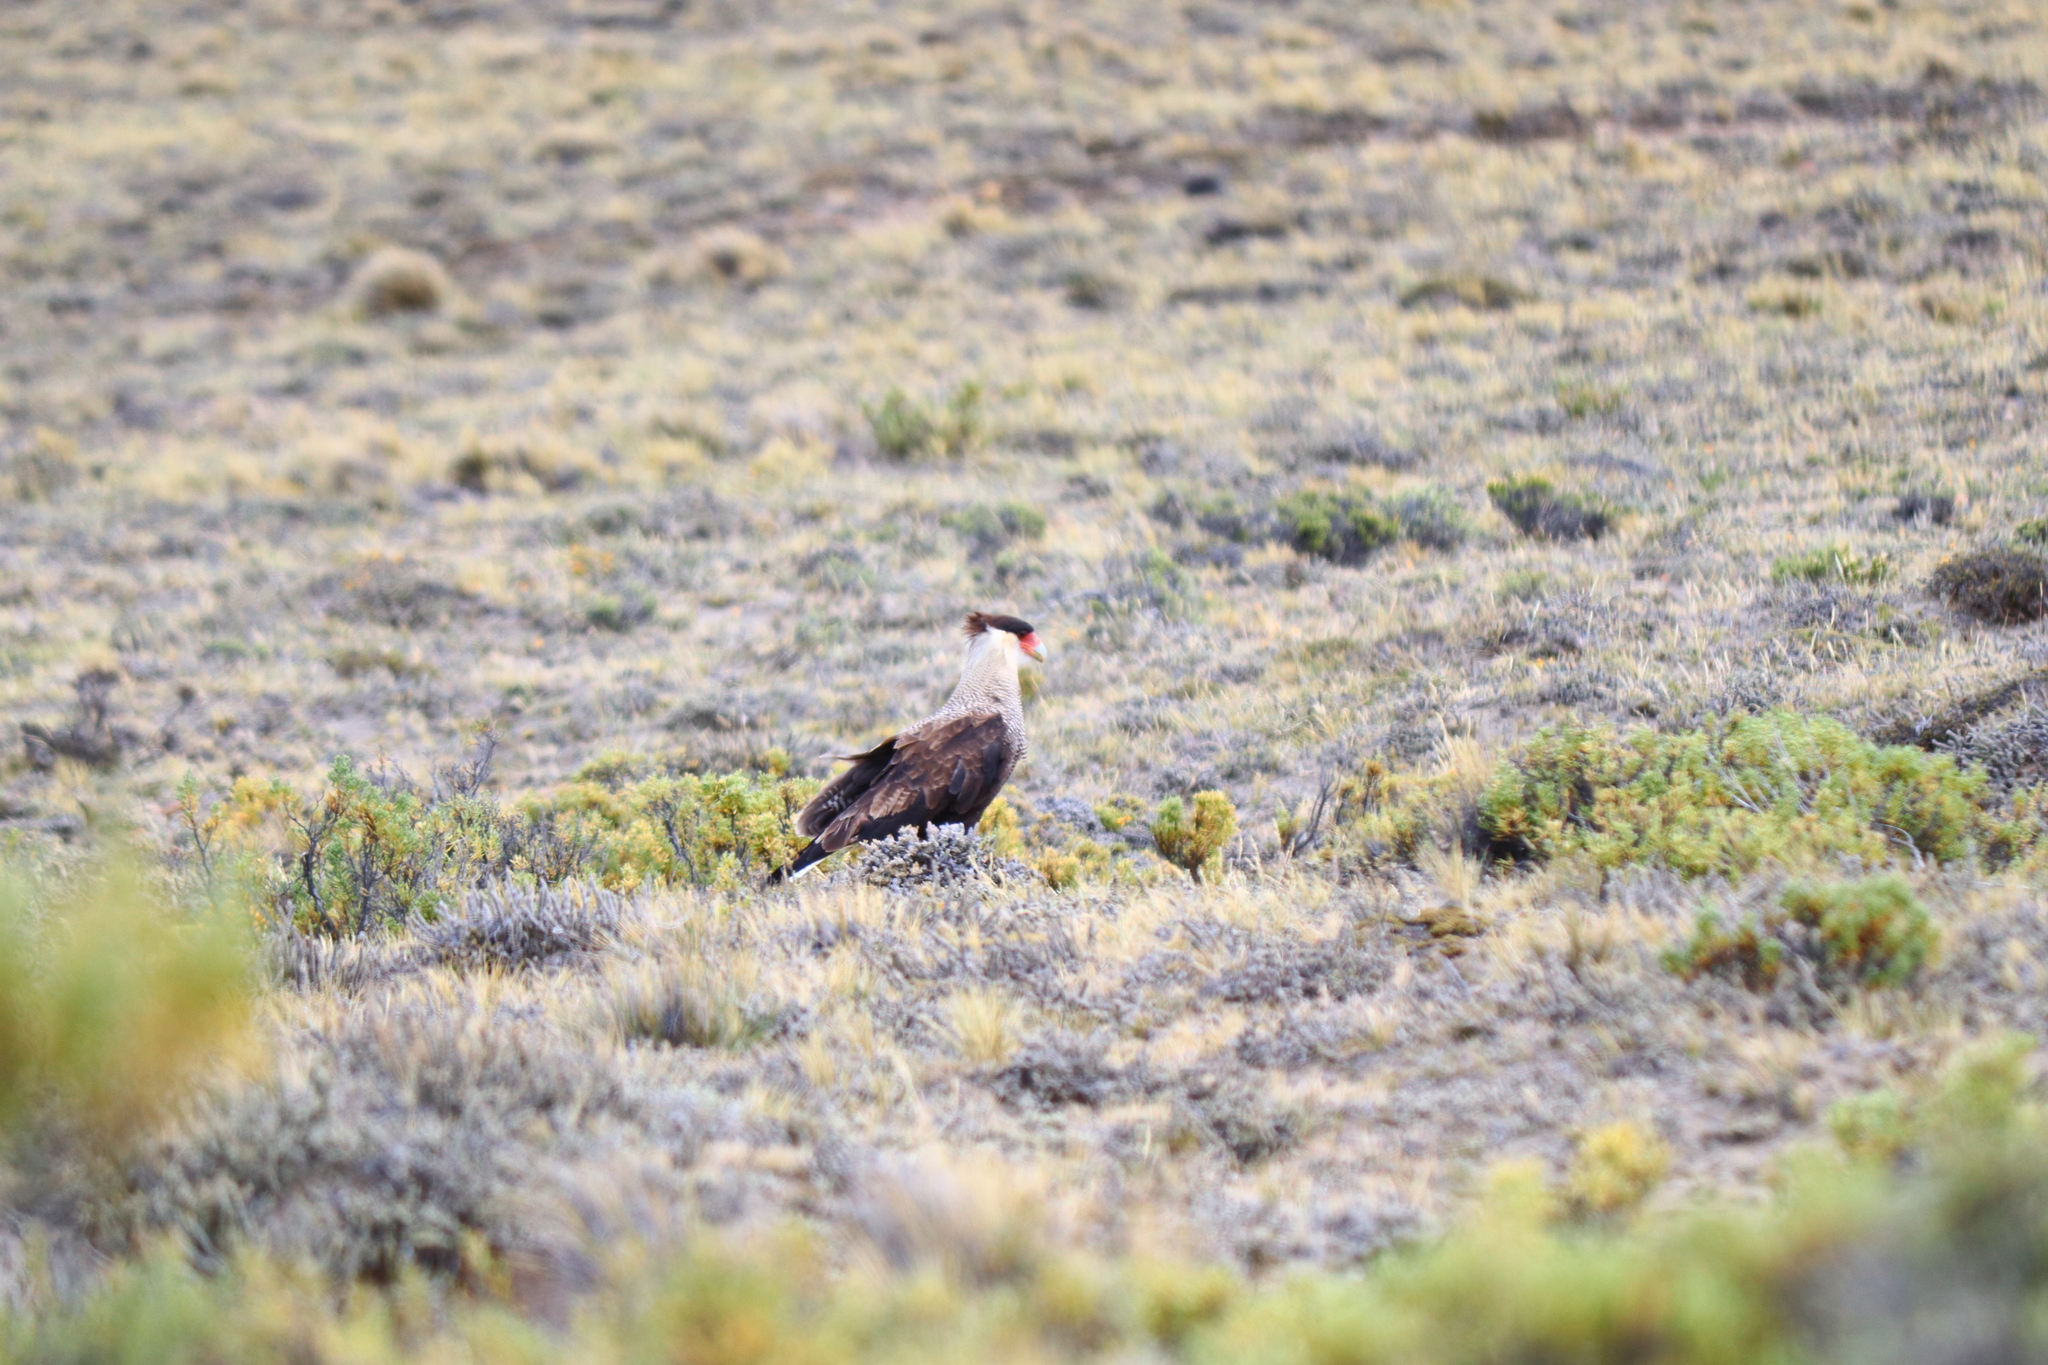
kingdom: Animalia
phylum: Chordata
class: Aves
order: Falconiformes
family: Falconidae
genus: Caracara
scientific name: Caracara plancus
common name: Southern caracara
